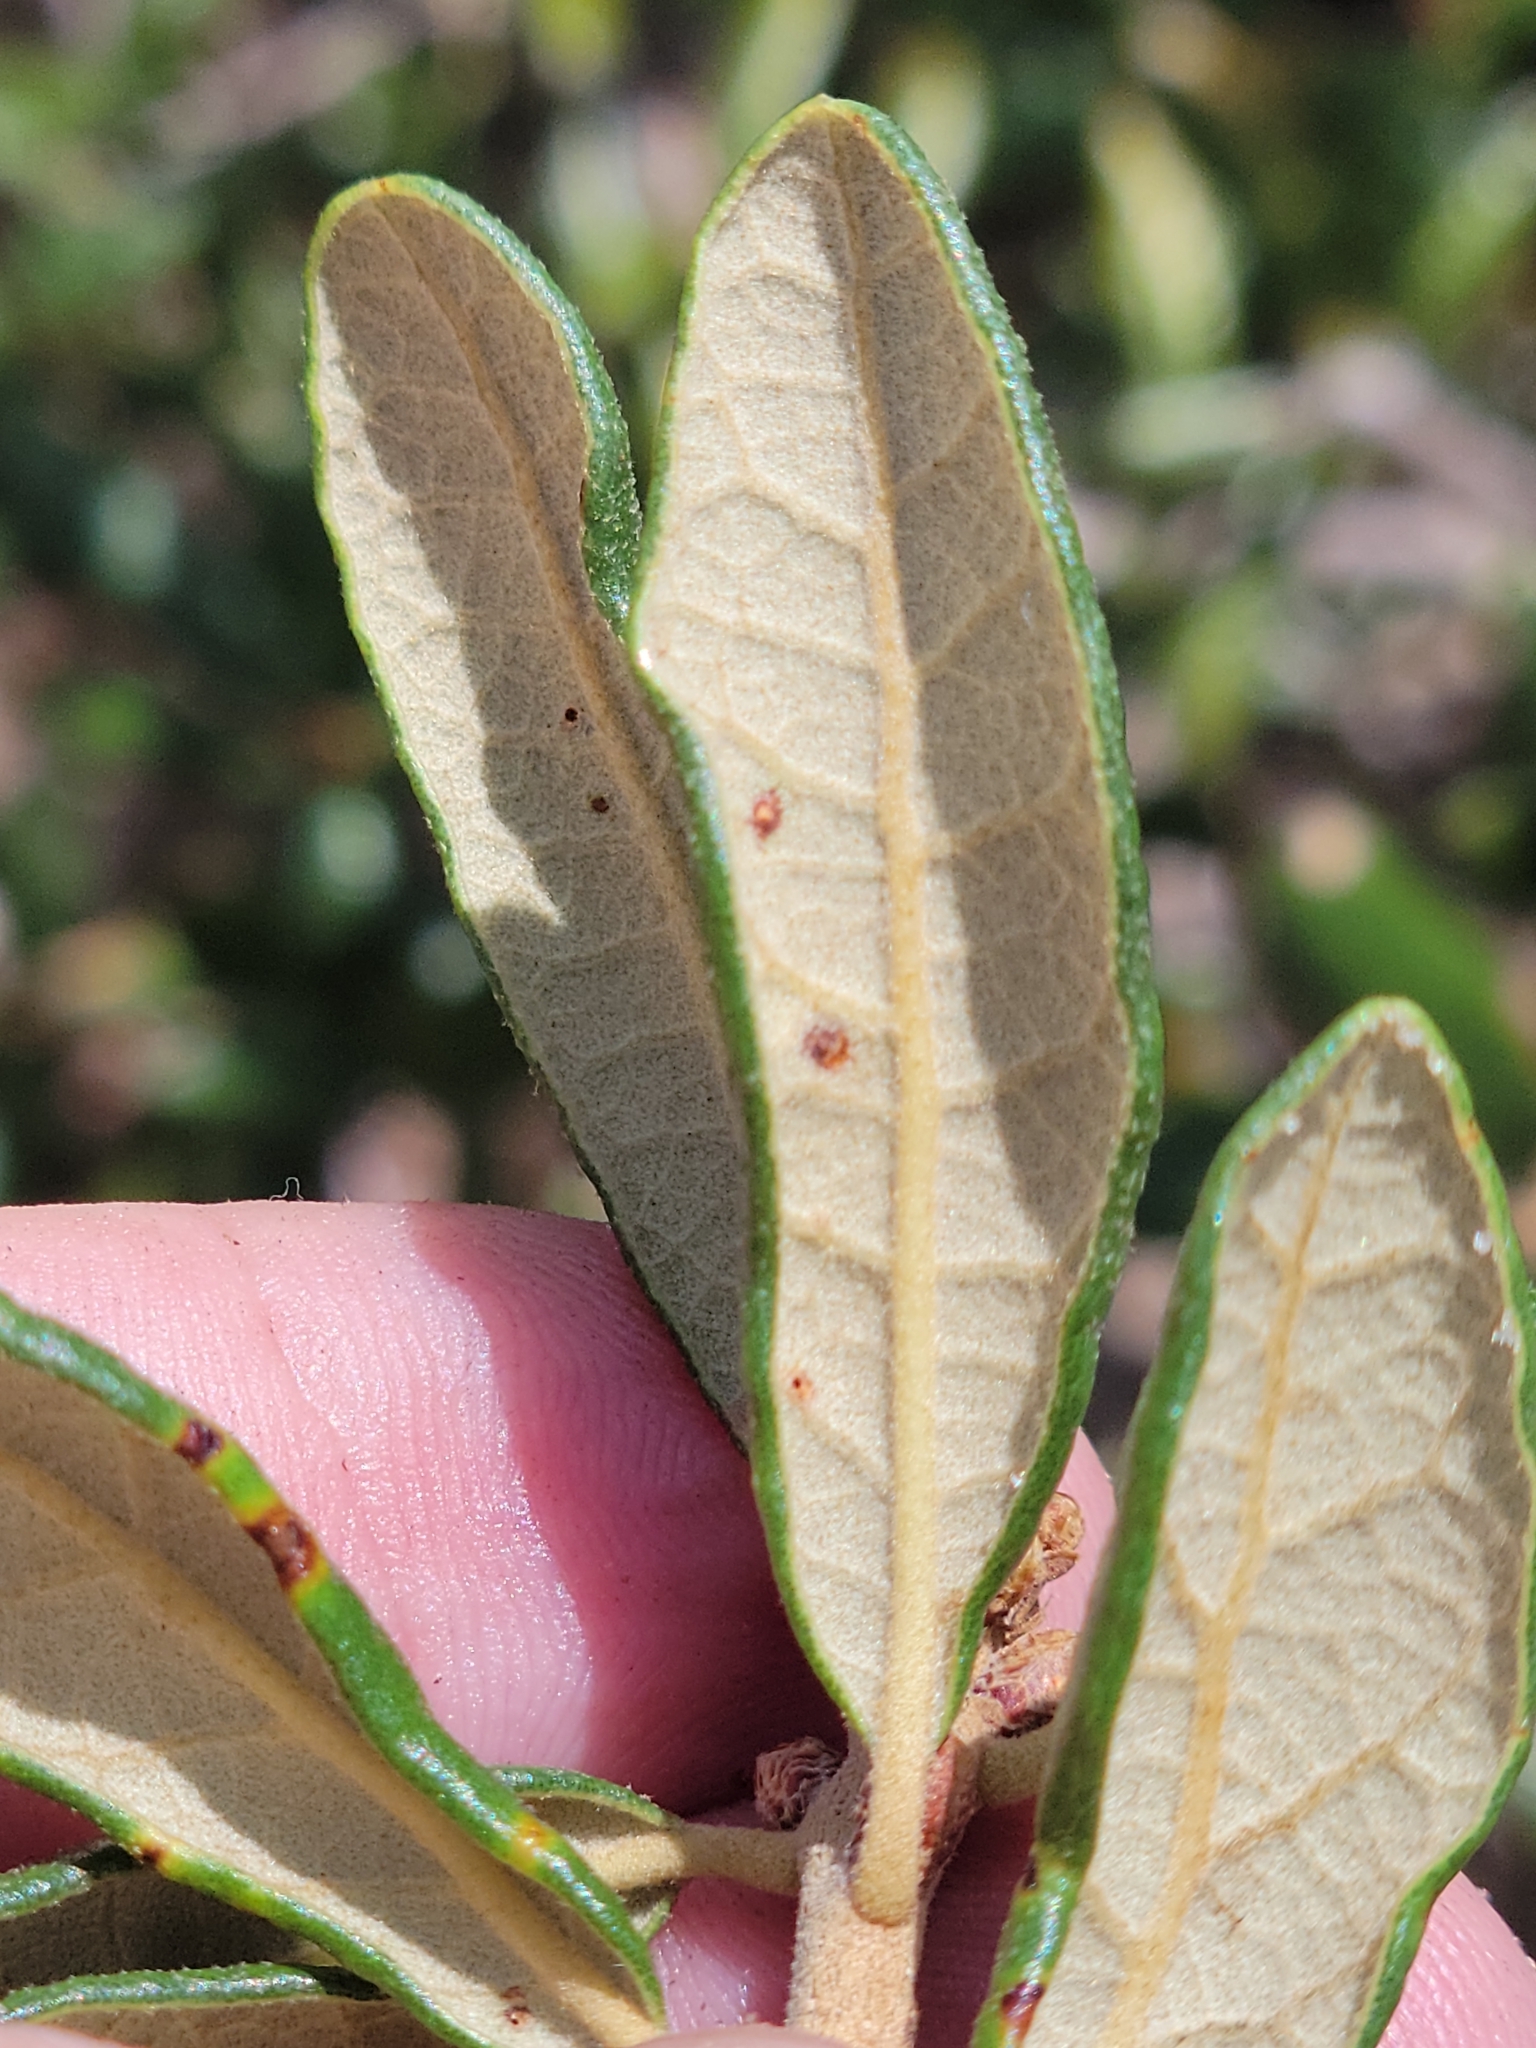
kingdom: Plantae
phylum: Tracheophyta
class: Magnoliopsida
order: Fagales
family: Fagaceae
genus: Quercus
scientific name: Quercus geminata
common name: Sand live oak
